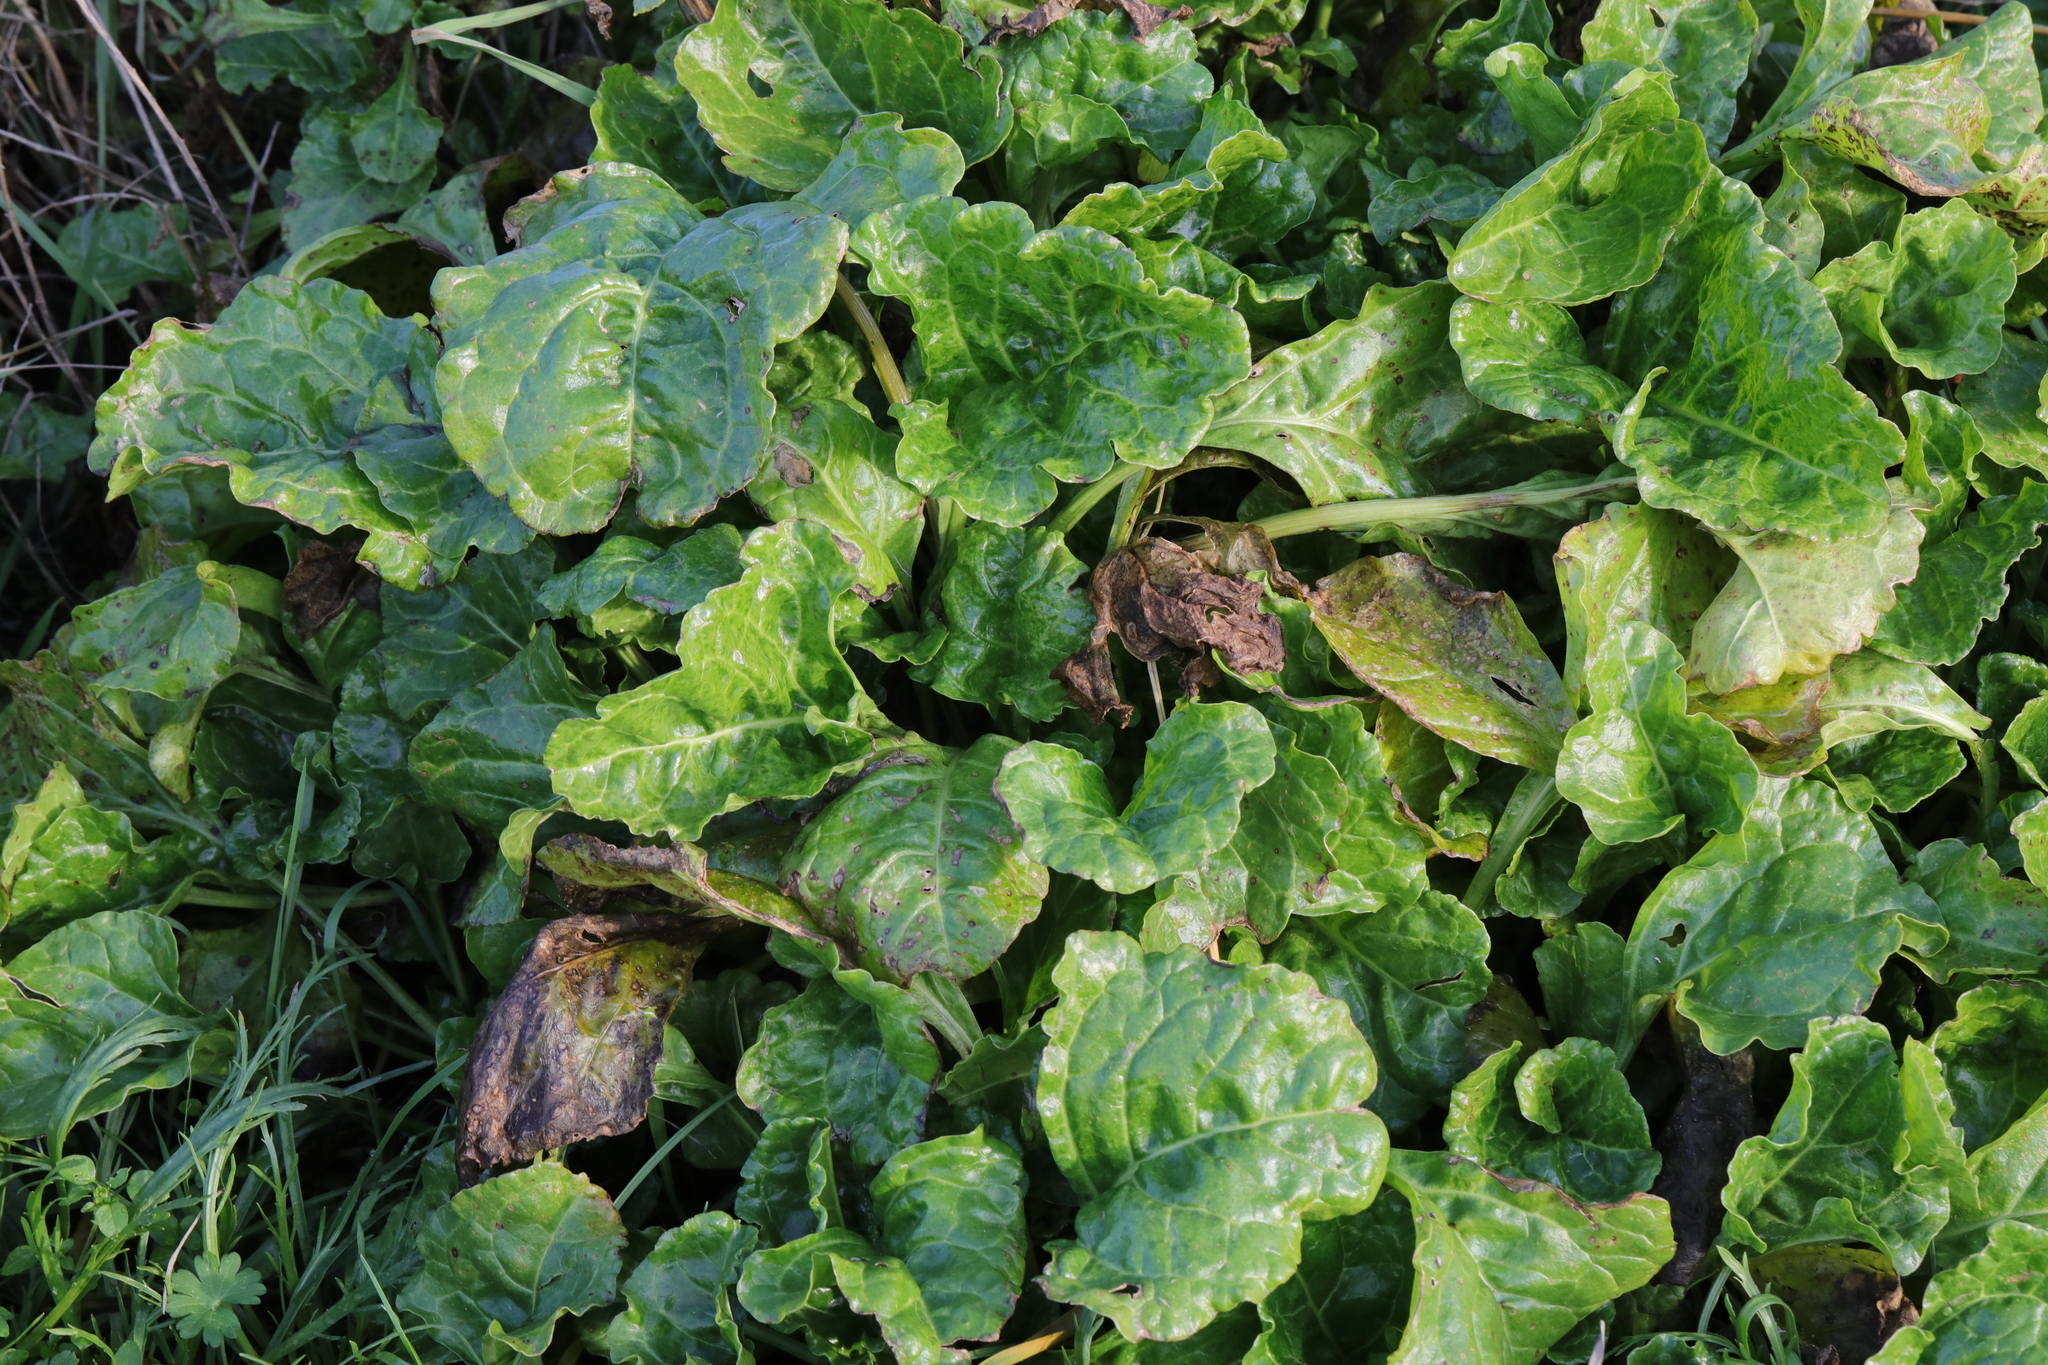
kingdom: Plantae
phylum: Tracheophyta
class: Magnoliopsida
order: Caryophyllales
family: Amaranthaceae
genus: Beta
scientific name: Beta vulgaris
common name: Beet
